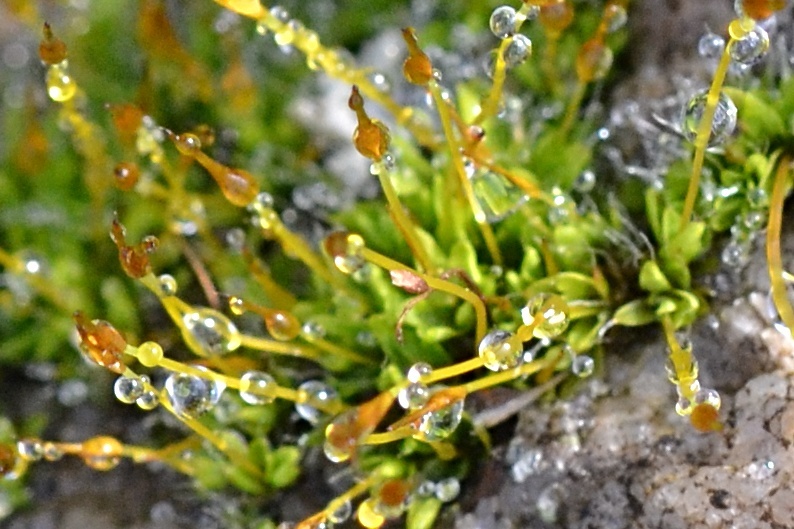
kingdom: Plantae
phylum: Bryophyta
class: Bryopsida
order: Pottiales
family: Pottiaceae
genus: Tortula
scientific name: Tortula muralis
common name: Wall screw-moss
